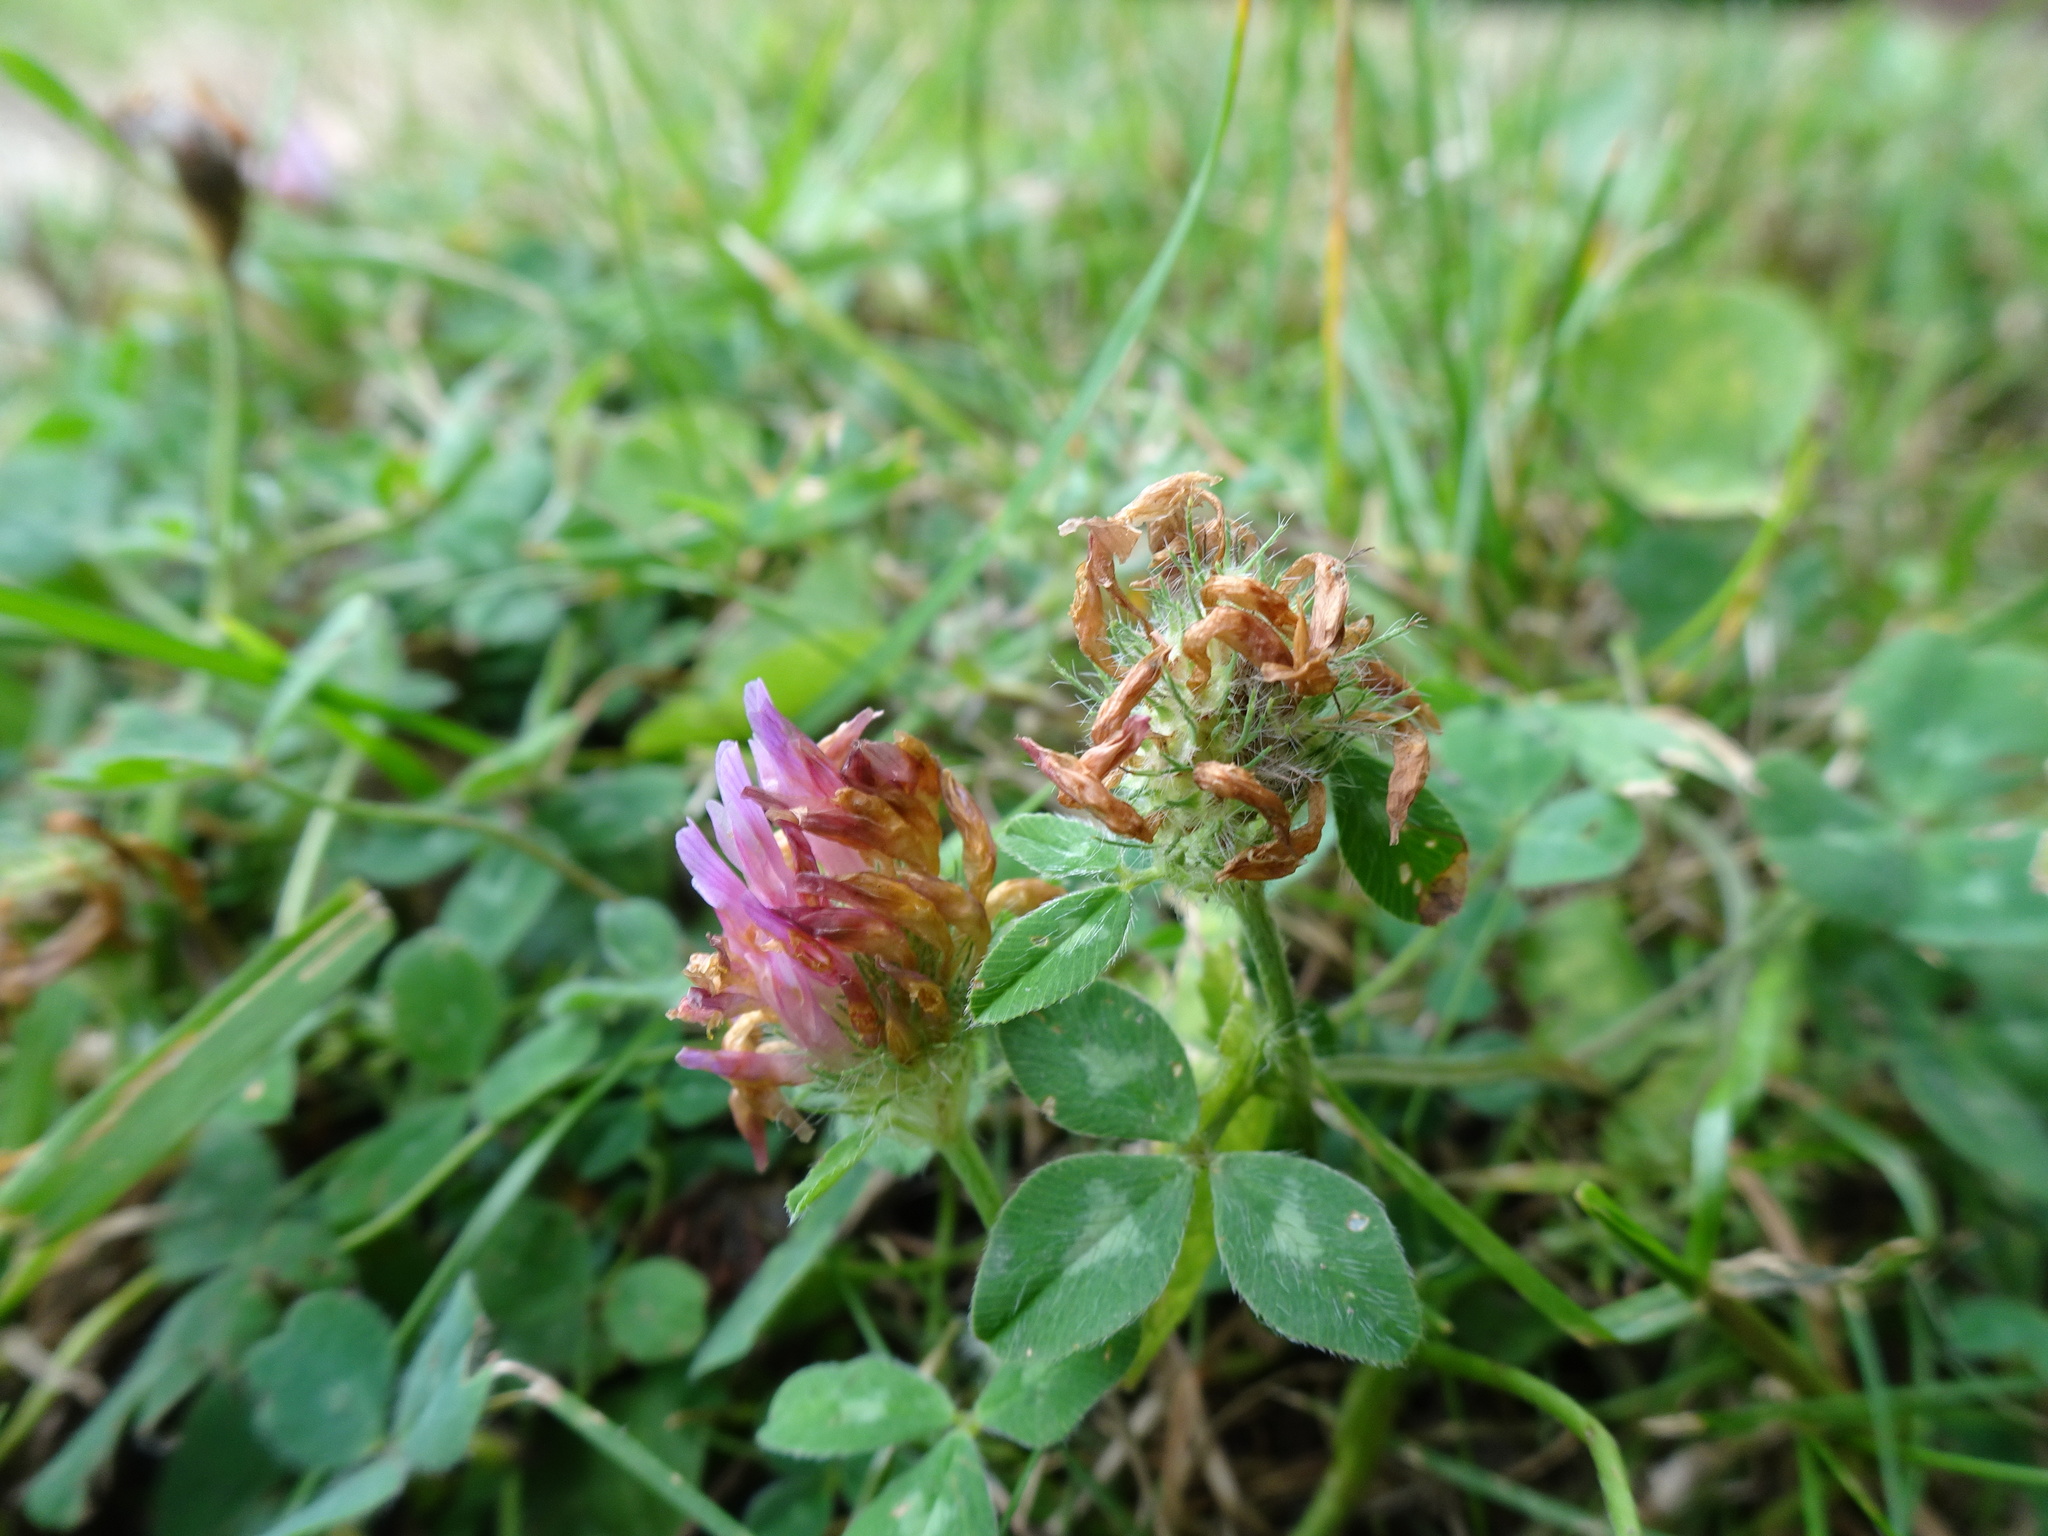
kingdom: Plantae
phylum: Tracheophyta
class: Magnoliopsida
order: Fabales
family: Fabaceae
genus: Trifolium
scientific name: Trifolium pratense
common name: Red clover
